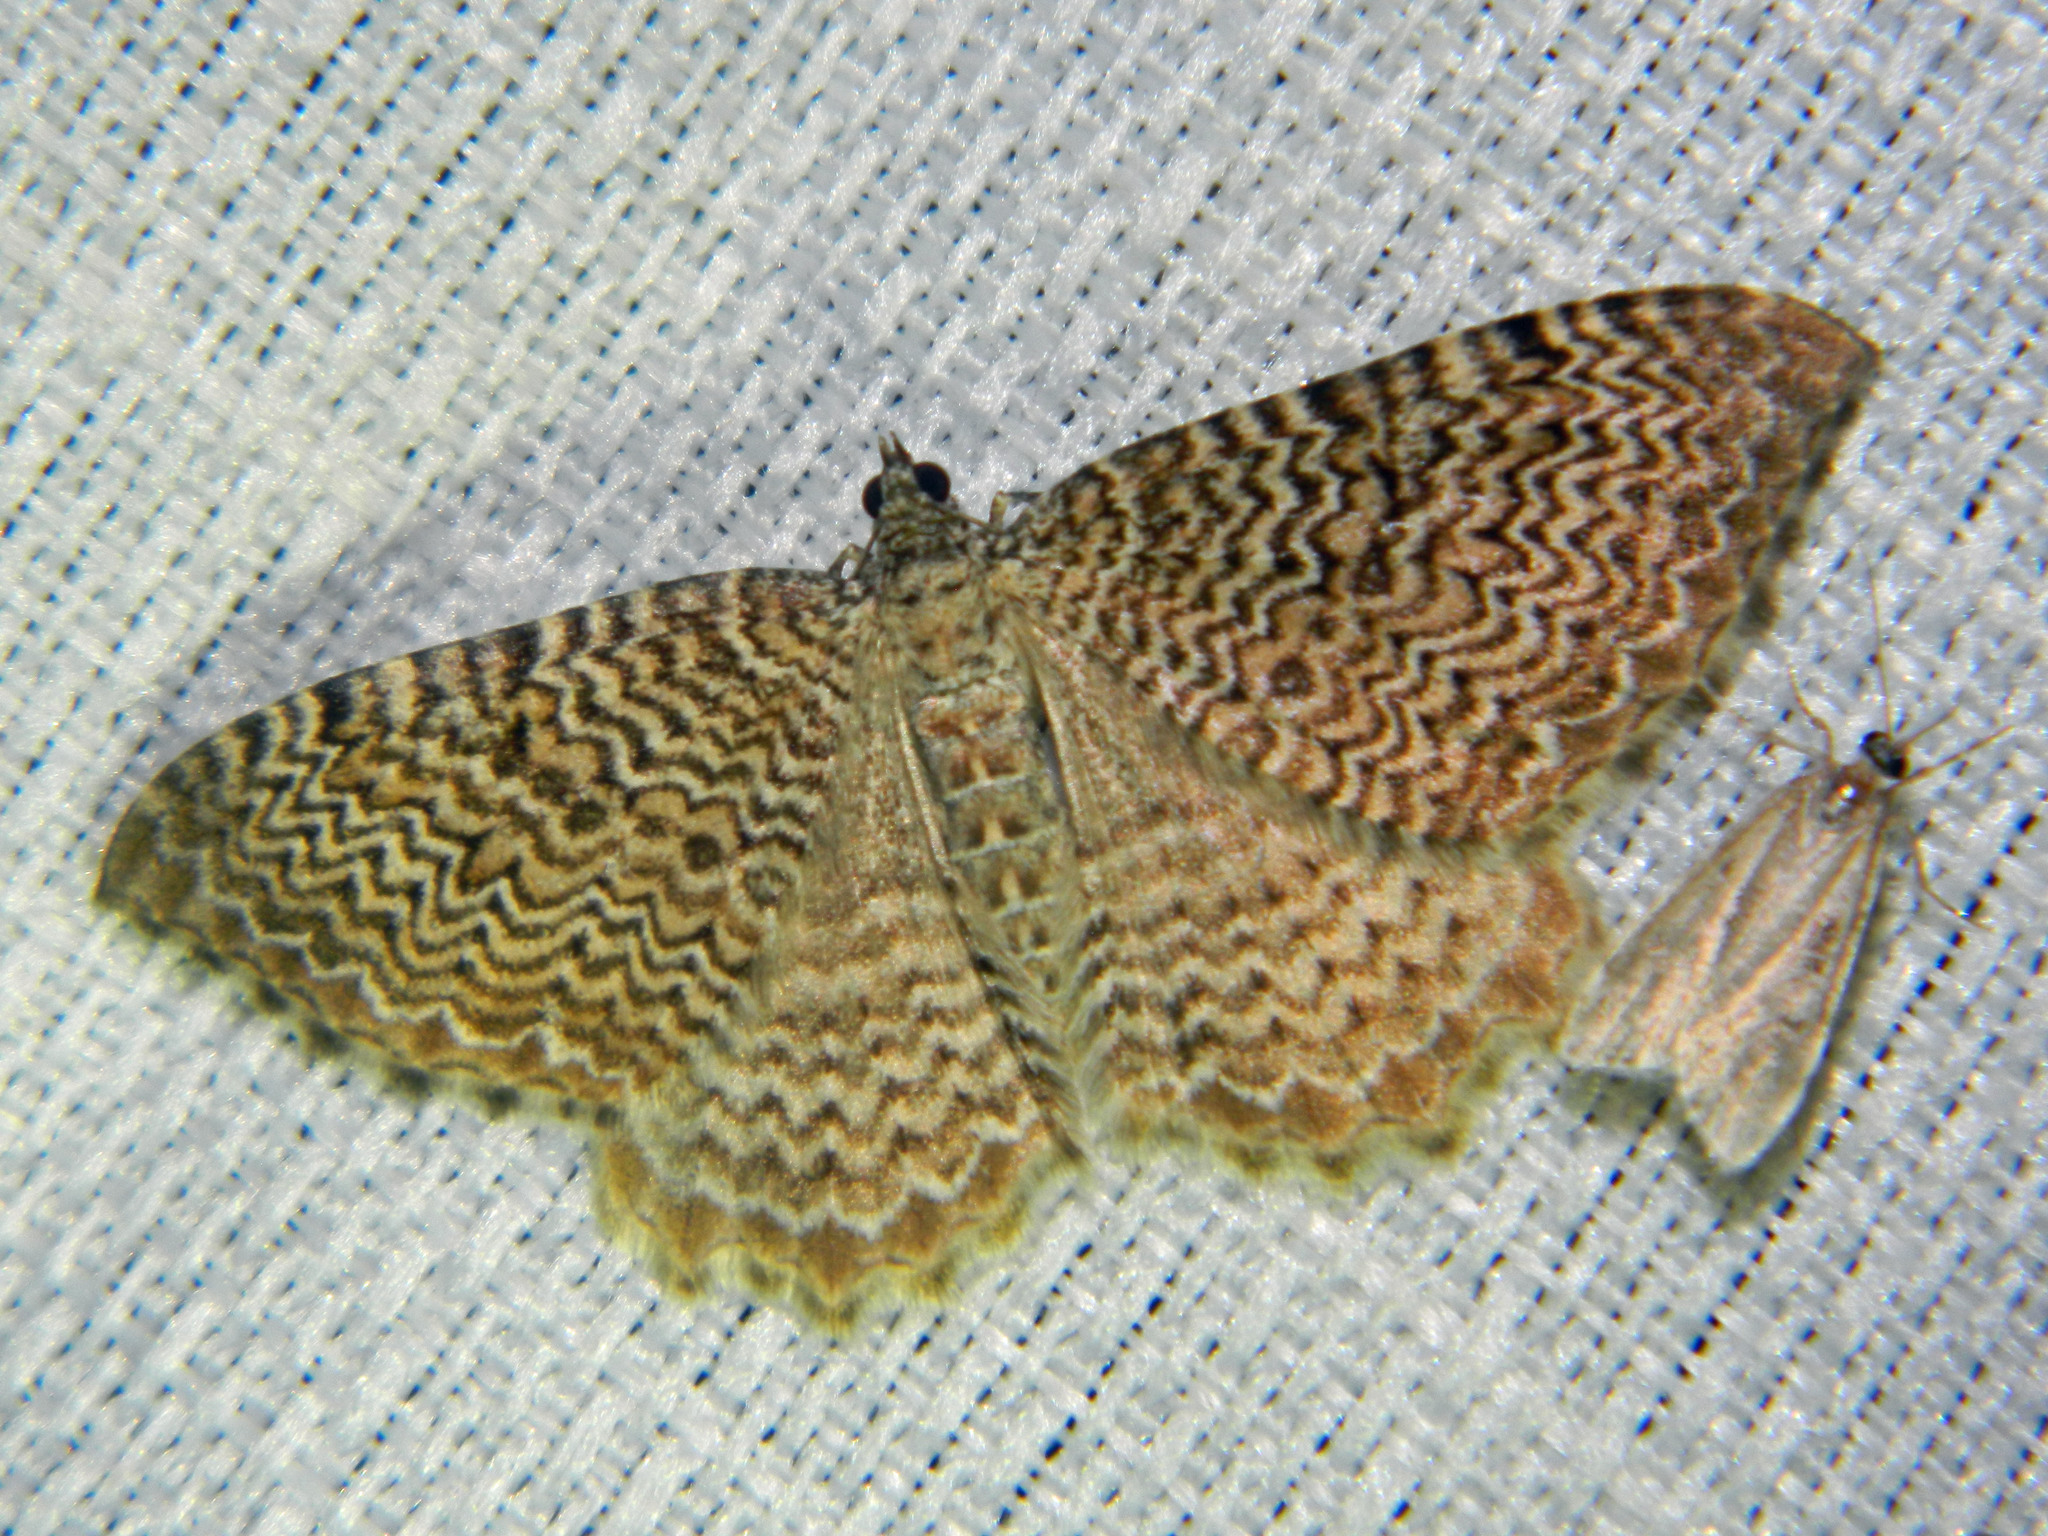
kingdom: Animalia
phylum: Arthropoda
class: Insecta
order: Lepidoptera
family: Geometridae
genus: Rheumaptera
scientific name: Rheumaptera
